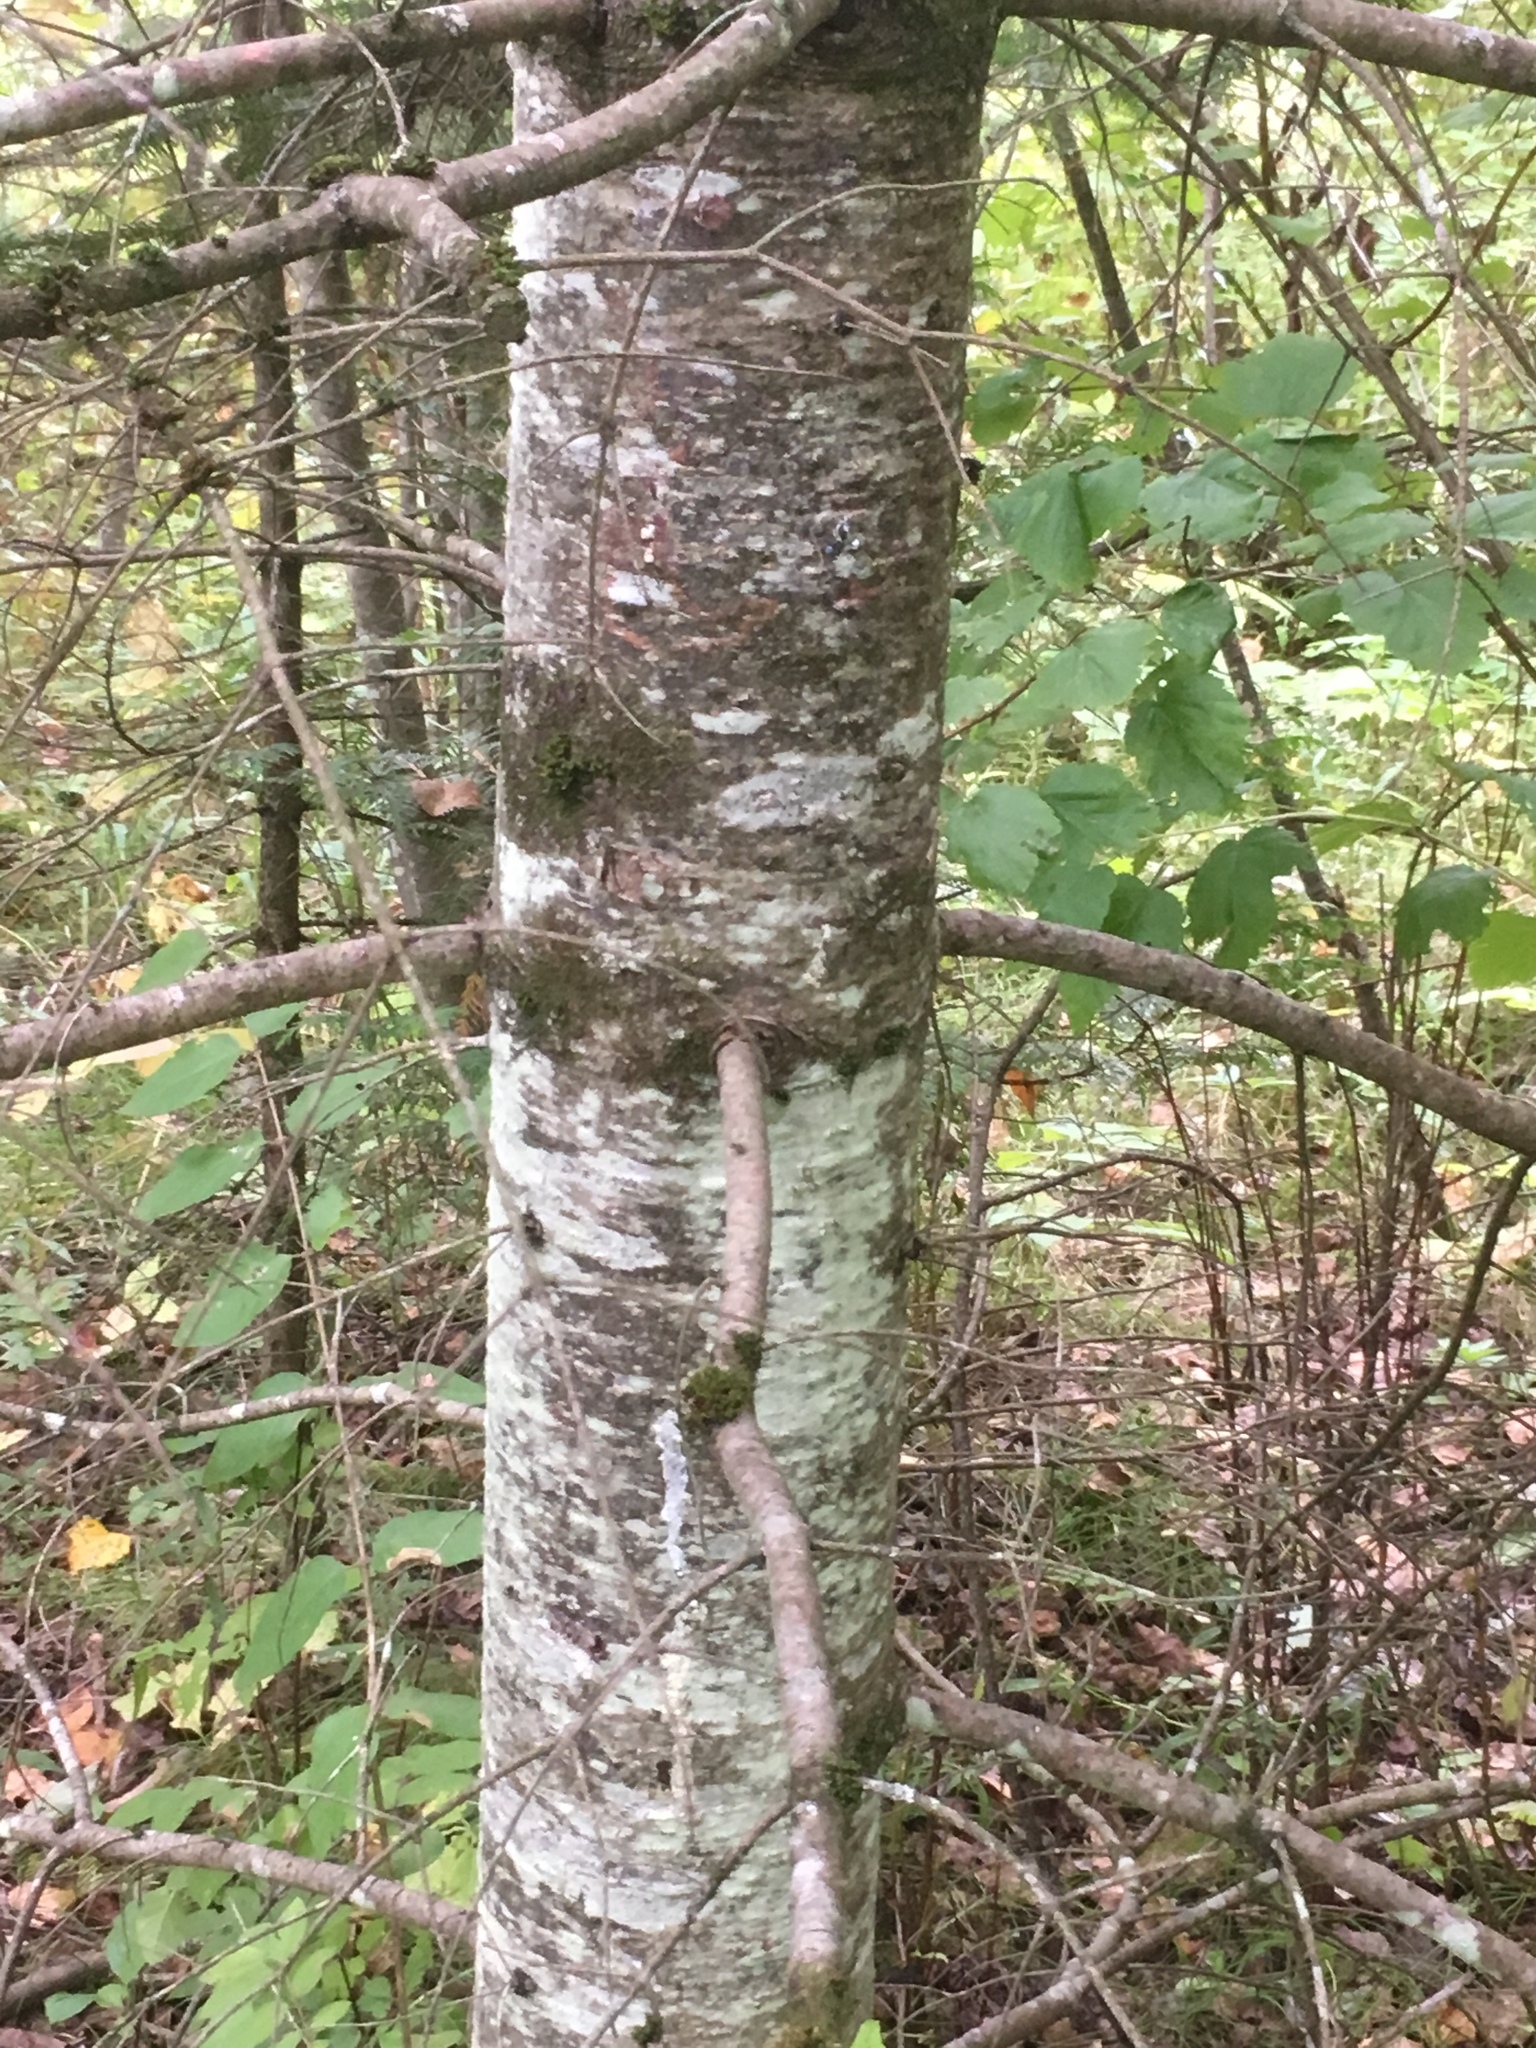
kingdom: Plantae
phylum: Tracheophyta
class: Pinopsida
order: Pinales
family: Pinaceae
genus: Abies
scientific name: Abies balsamea
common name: Balsam fir
